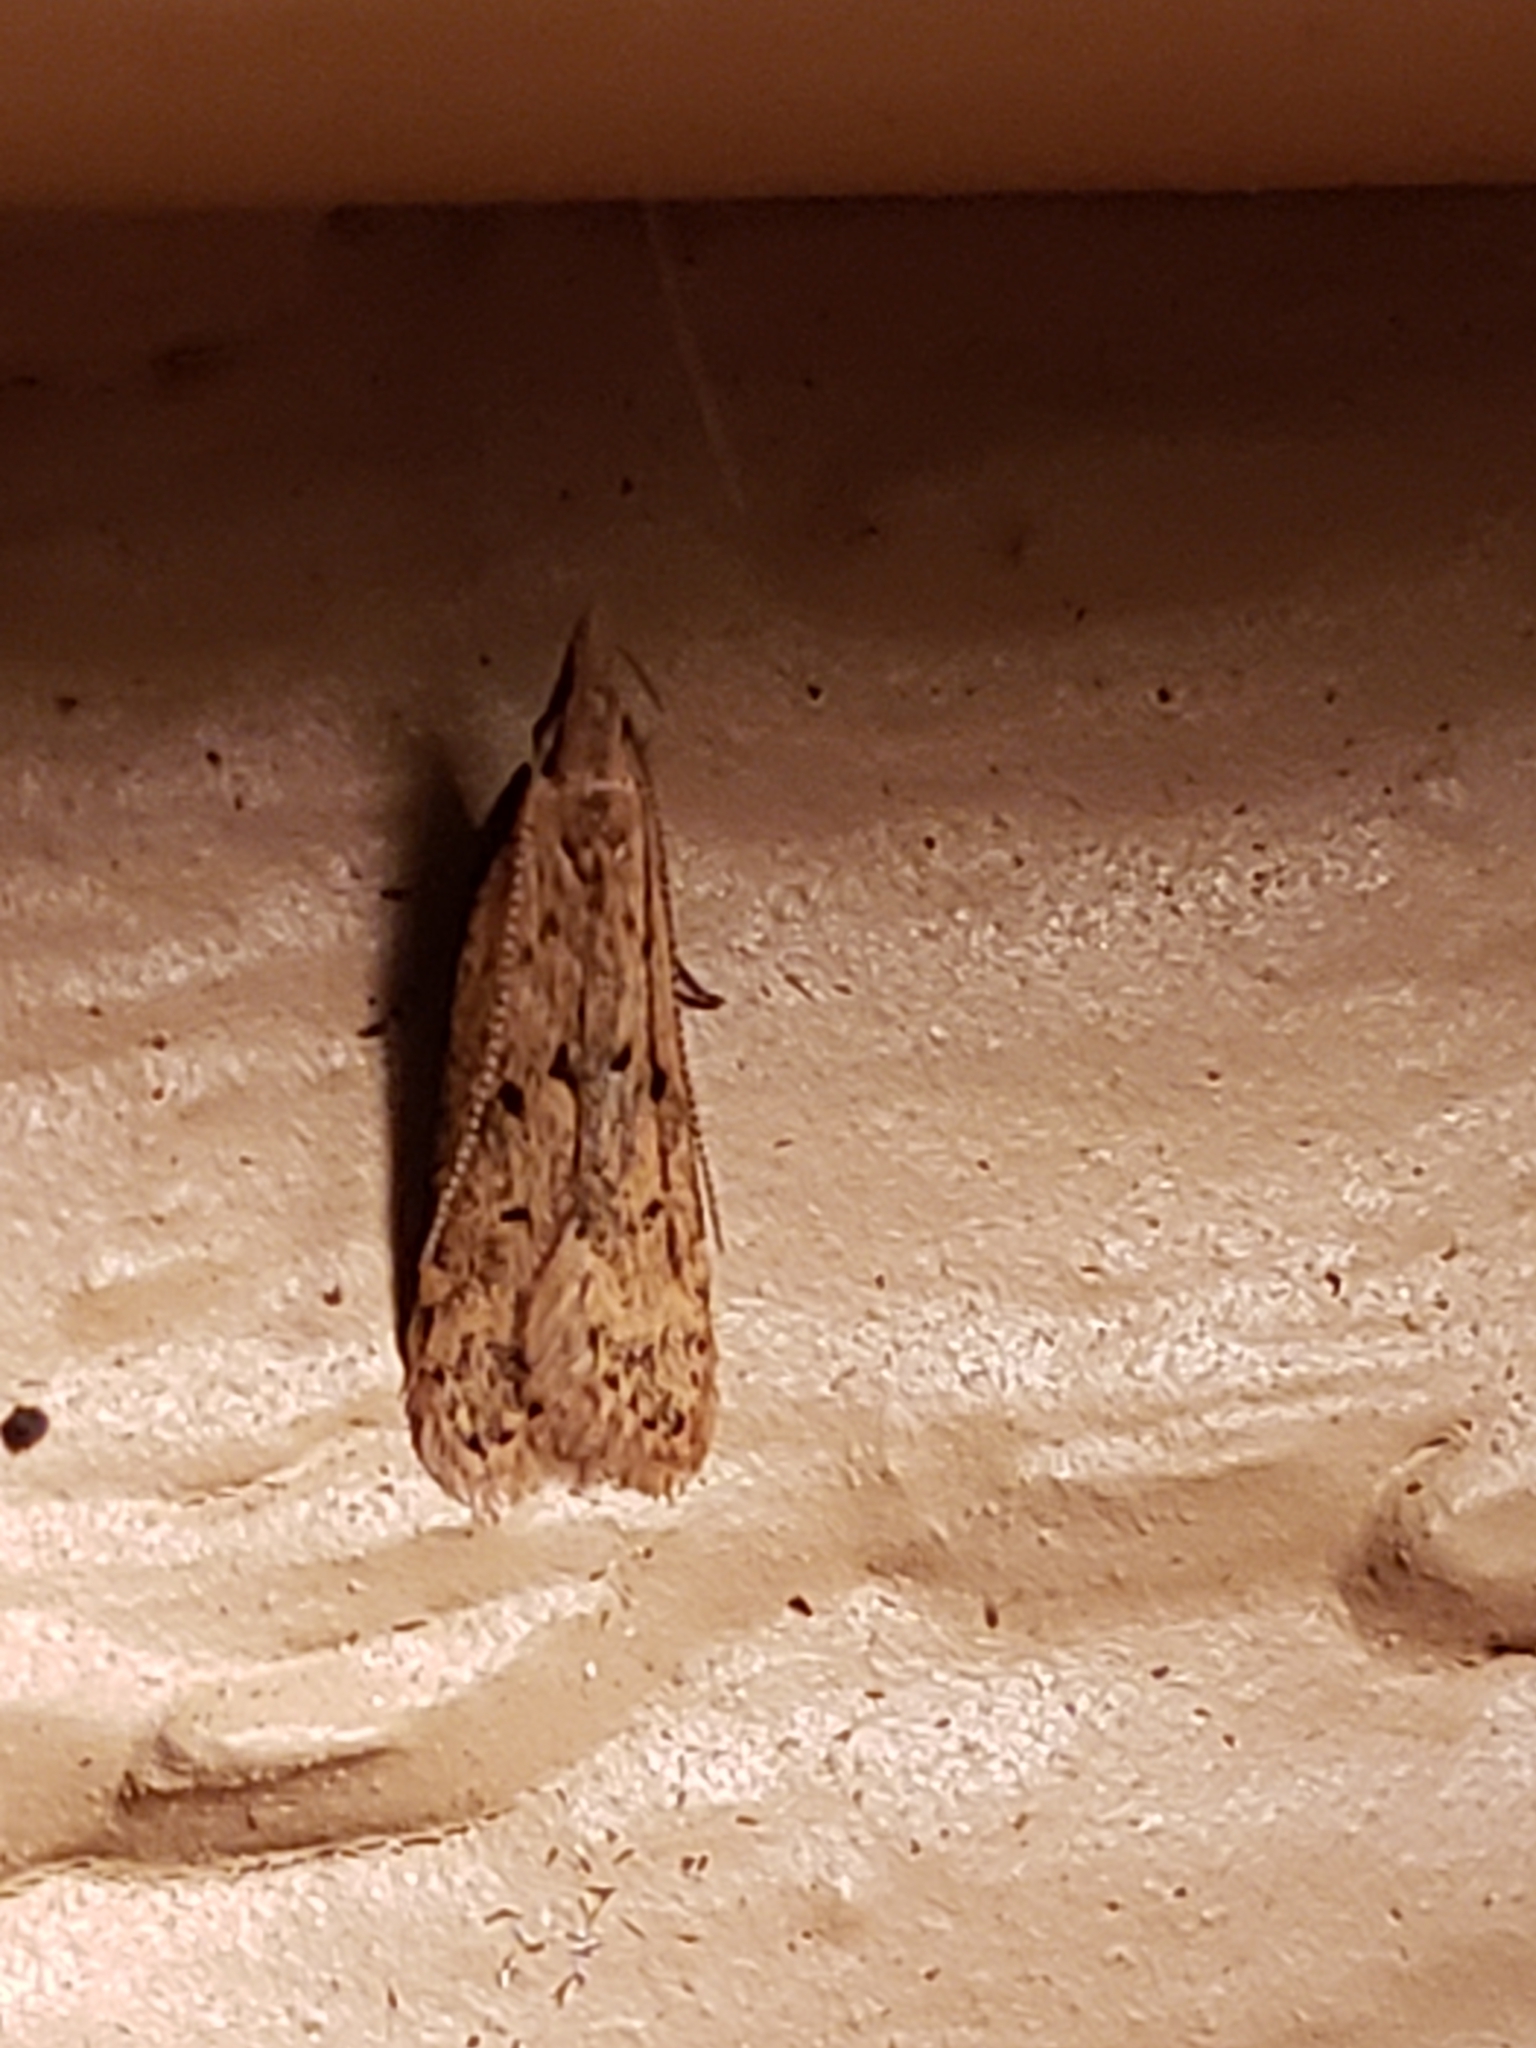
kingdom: Animalia
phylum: Arthropoda
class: Insecta
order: Lepidoptera
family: Gelechiidae
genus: Dichomeris
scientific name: Dichomeris punctipennella
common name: Many-spotted dichomeris moth
